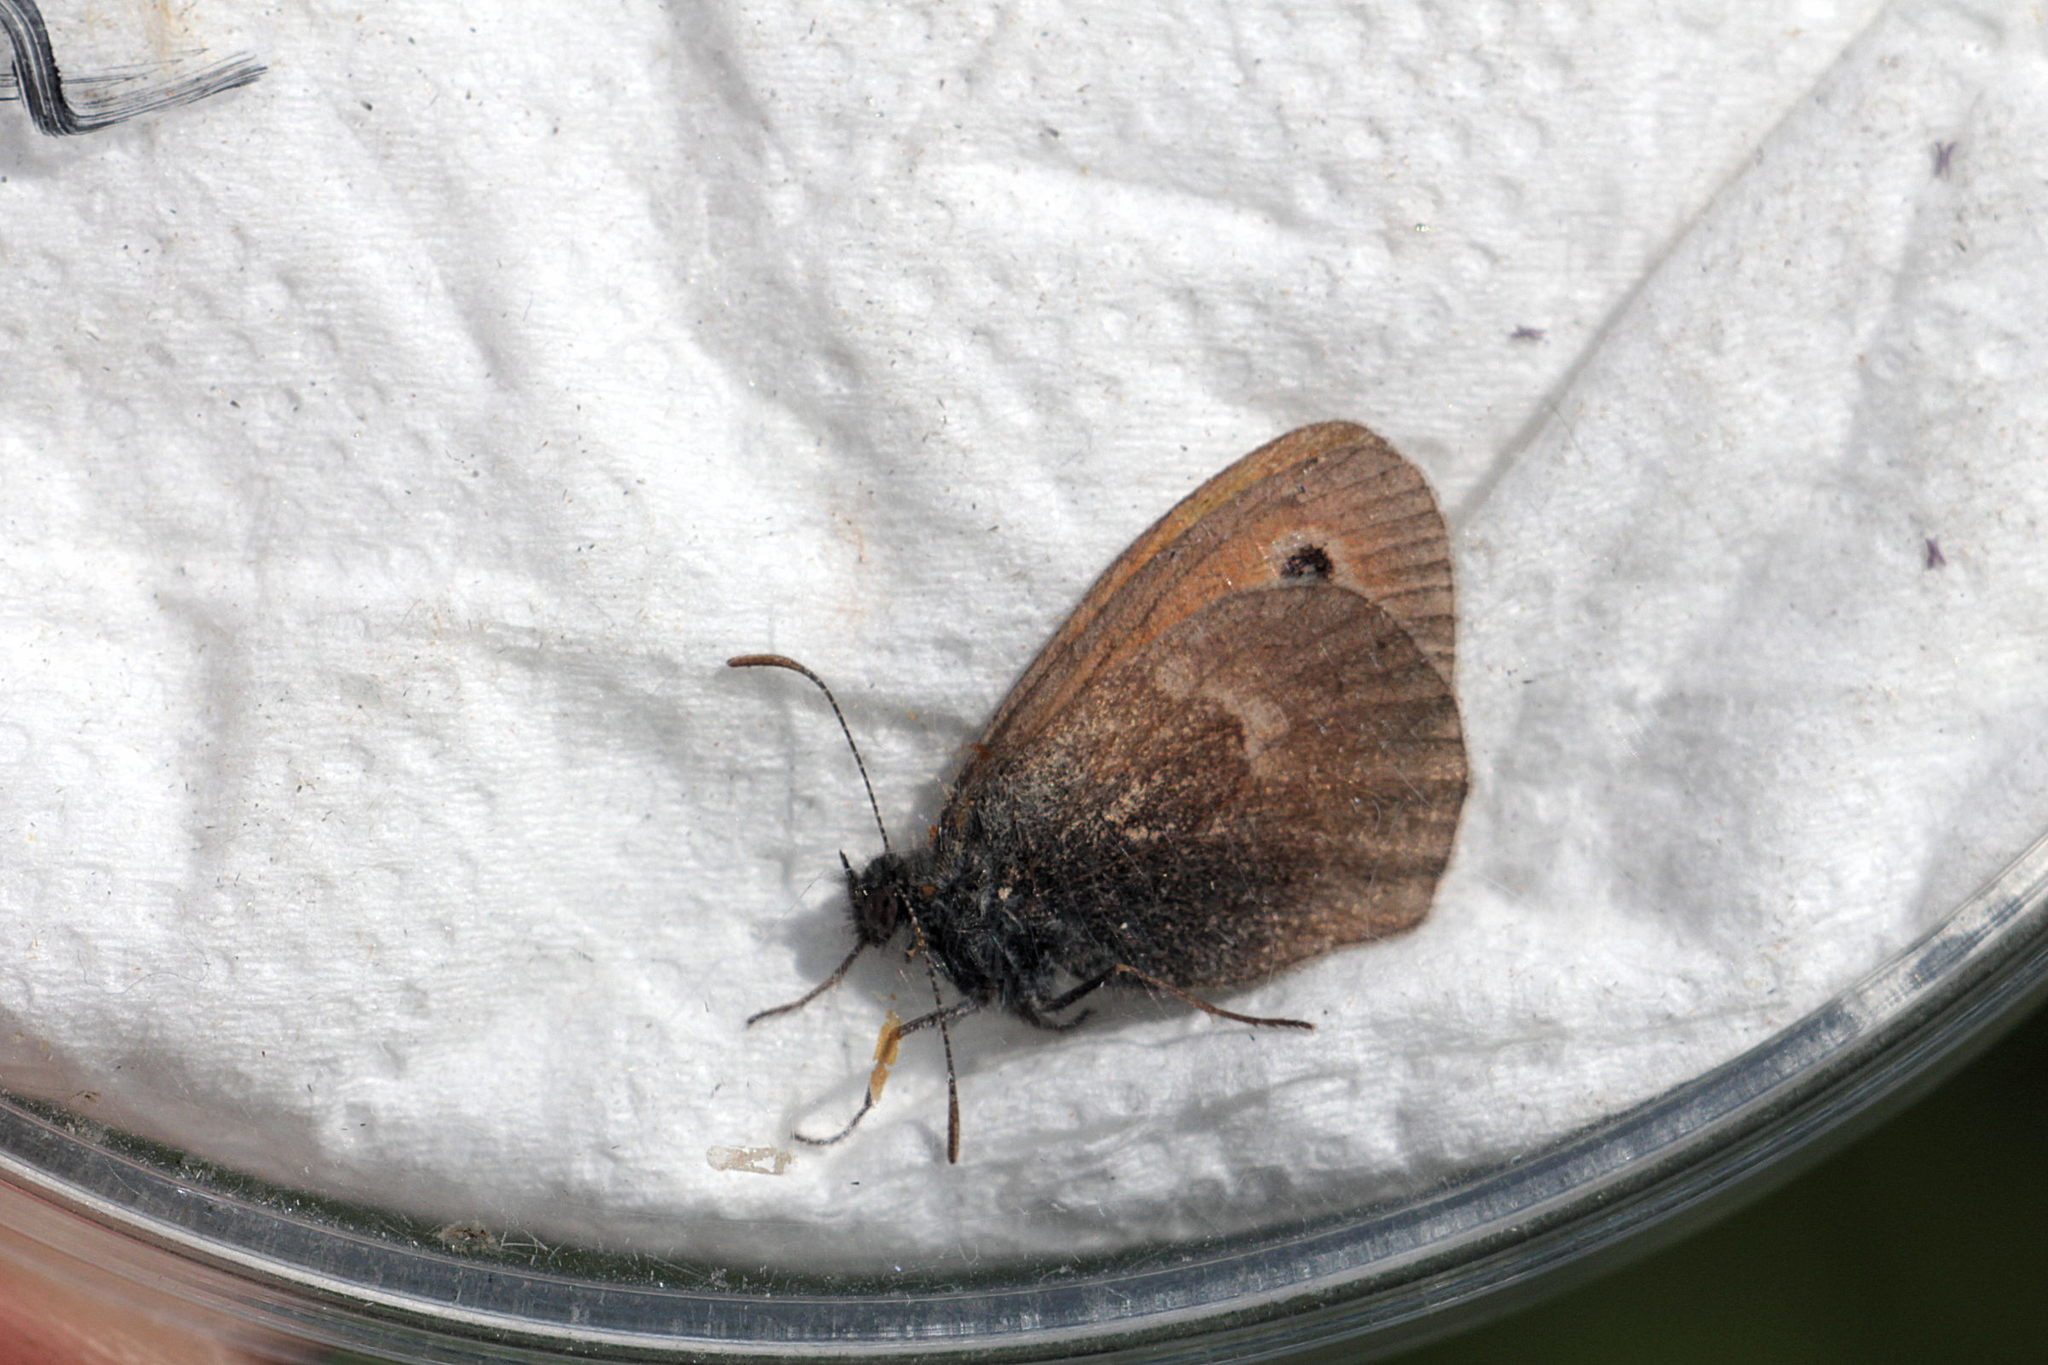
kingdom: Animalia
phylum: Arthropoda
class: Insecta
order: Lepidoptera
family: Nymphalidae
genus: Coenonympha
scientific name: Coenonympha pamphilus
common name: Small heath
